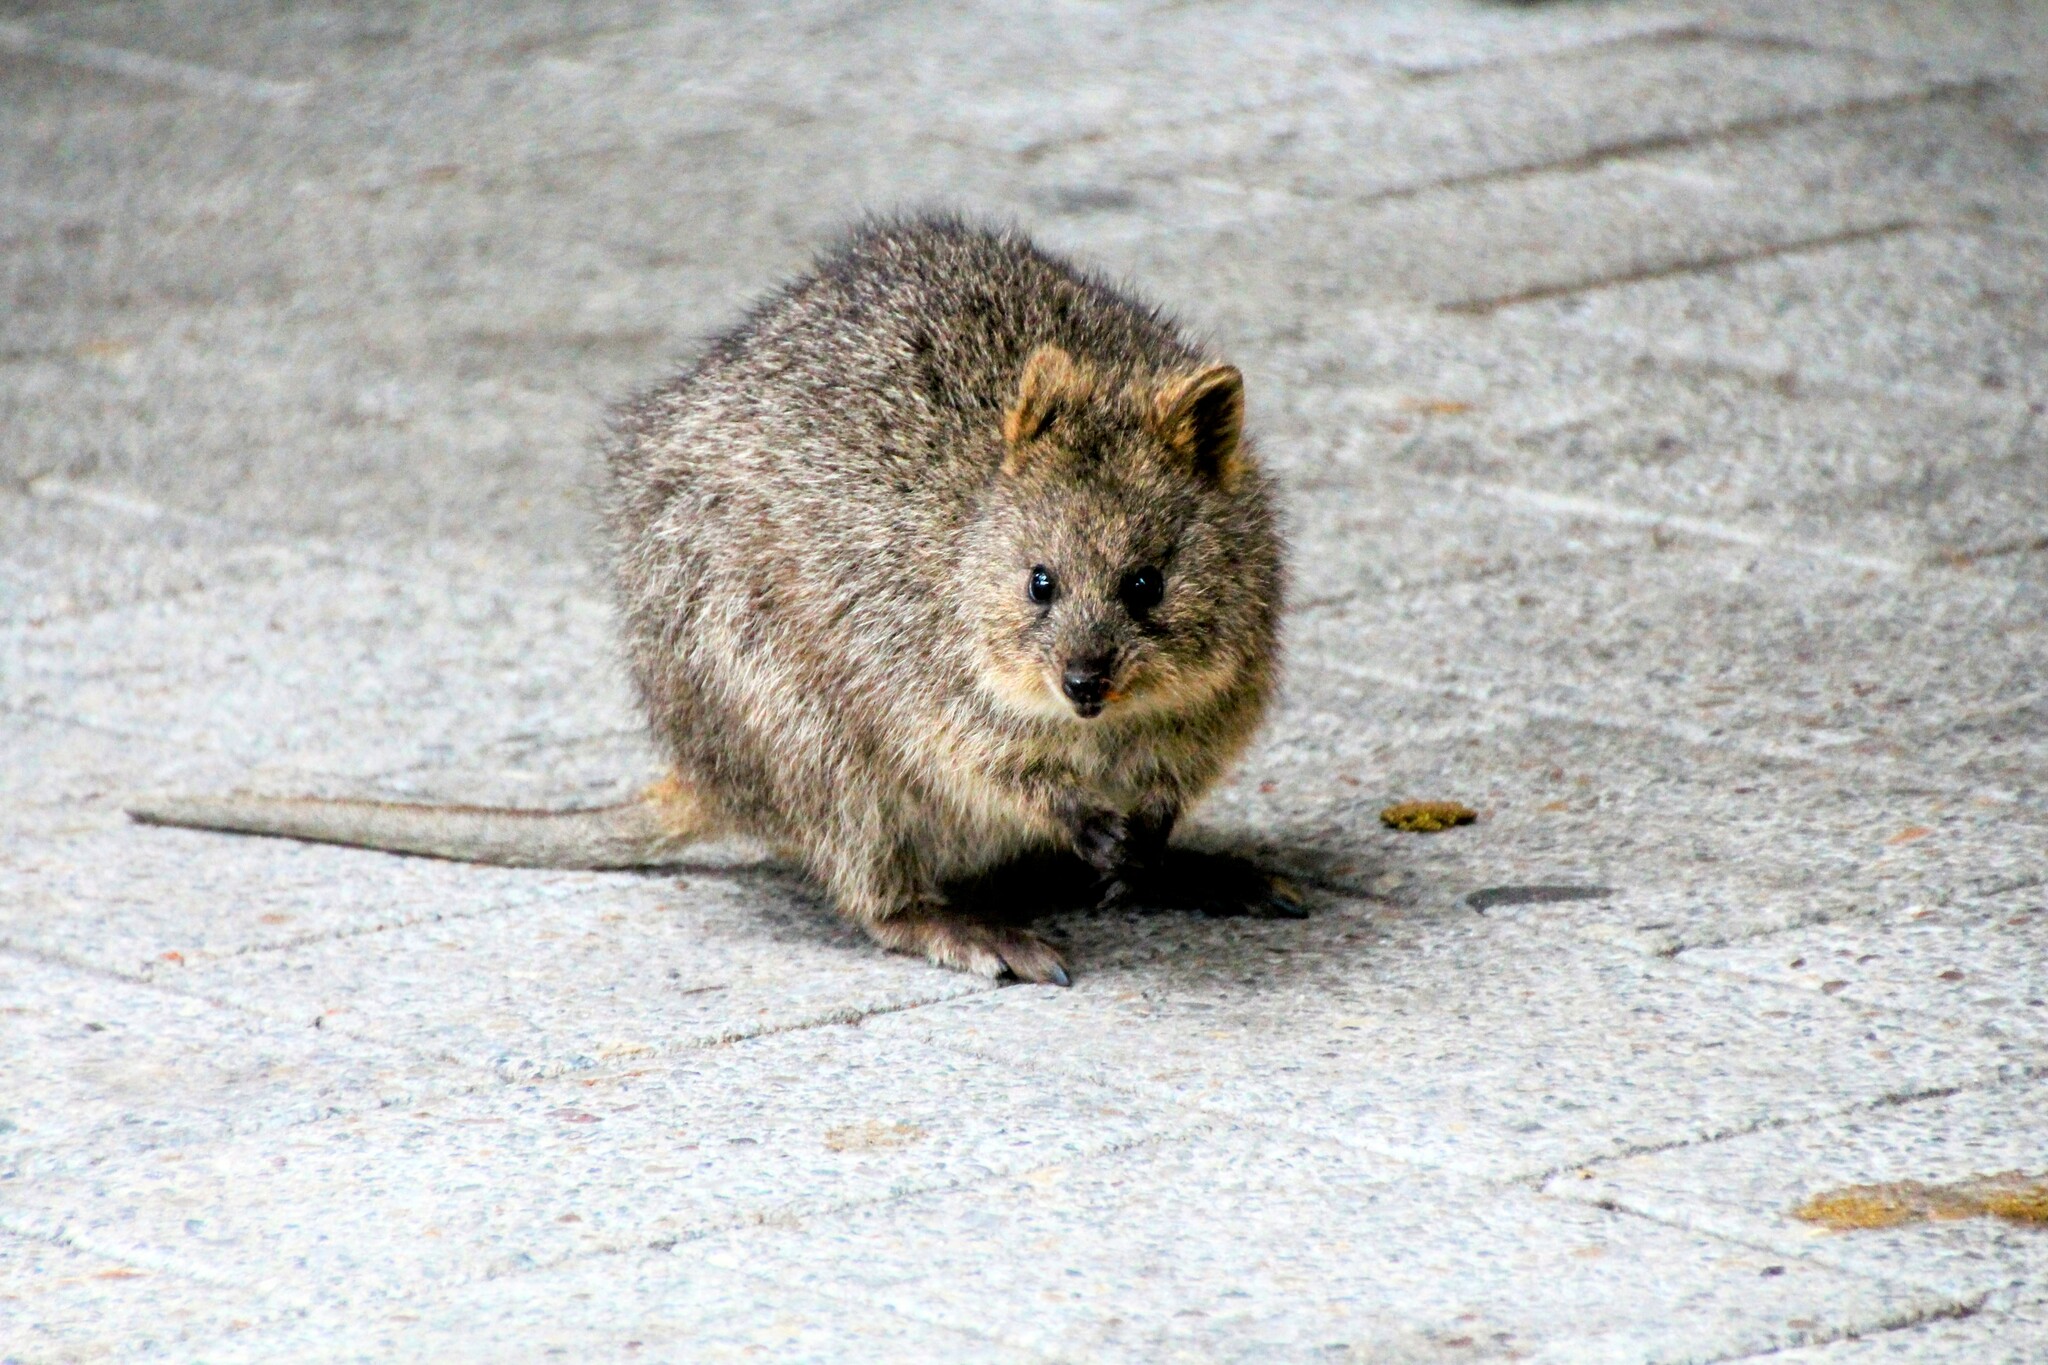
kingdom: Animalia
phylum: Chordata
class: Mammalia
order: Diprotodontia
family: Macropodidae
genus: Setonix
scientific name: Setonix brachyurus
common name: Quokka
